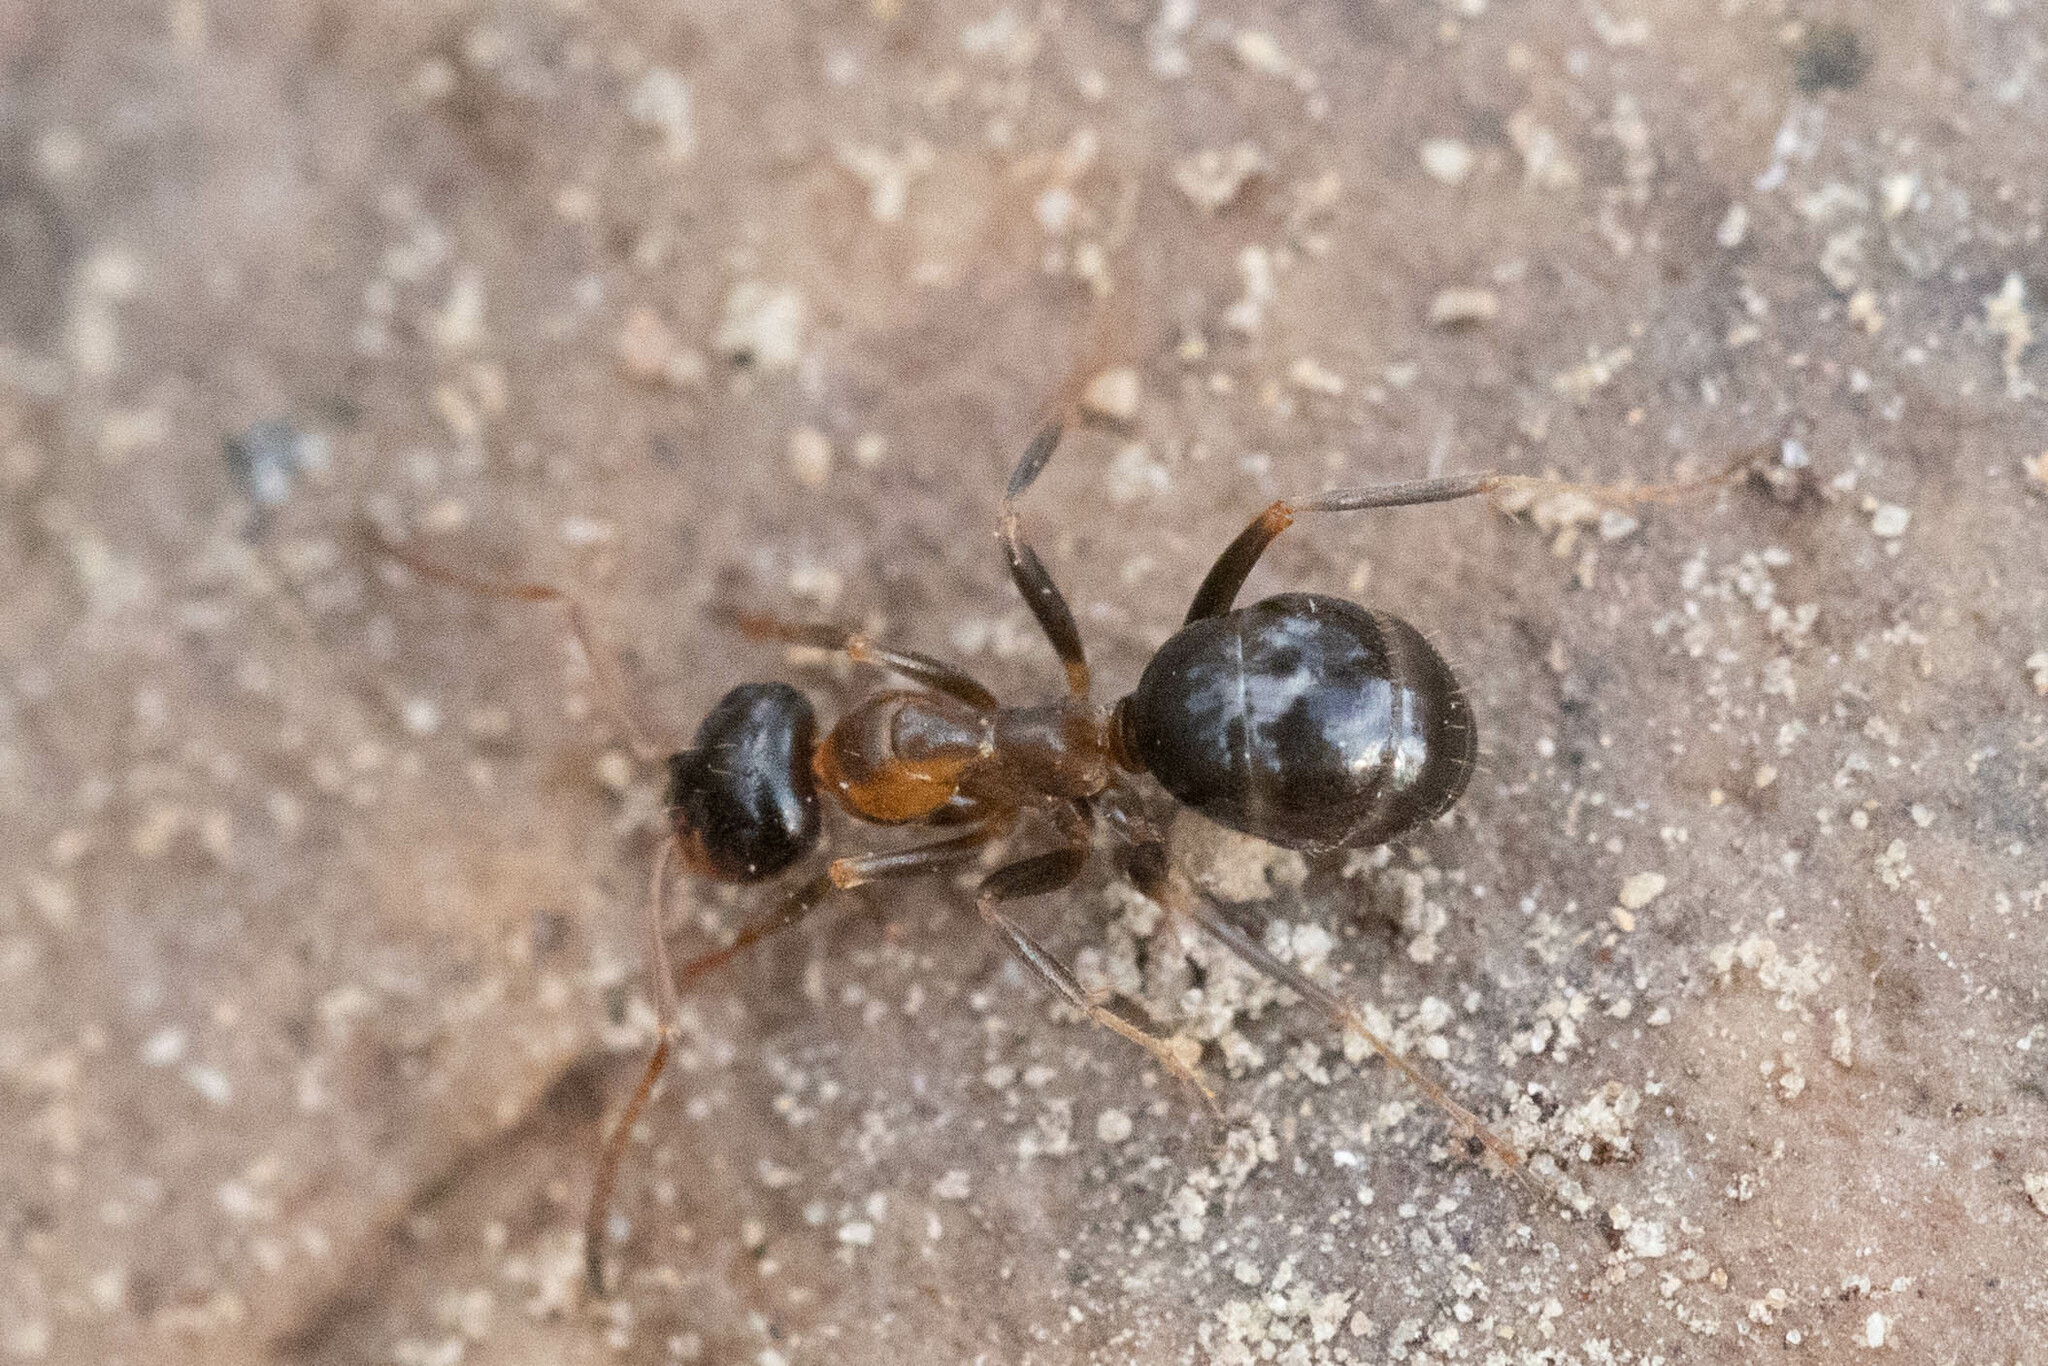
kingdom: Animalia
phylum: Arthropoda
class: Insecta
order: Hymenoptera
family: Formicidae
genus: Formica
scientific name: Formica subpolita
